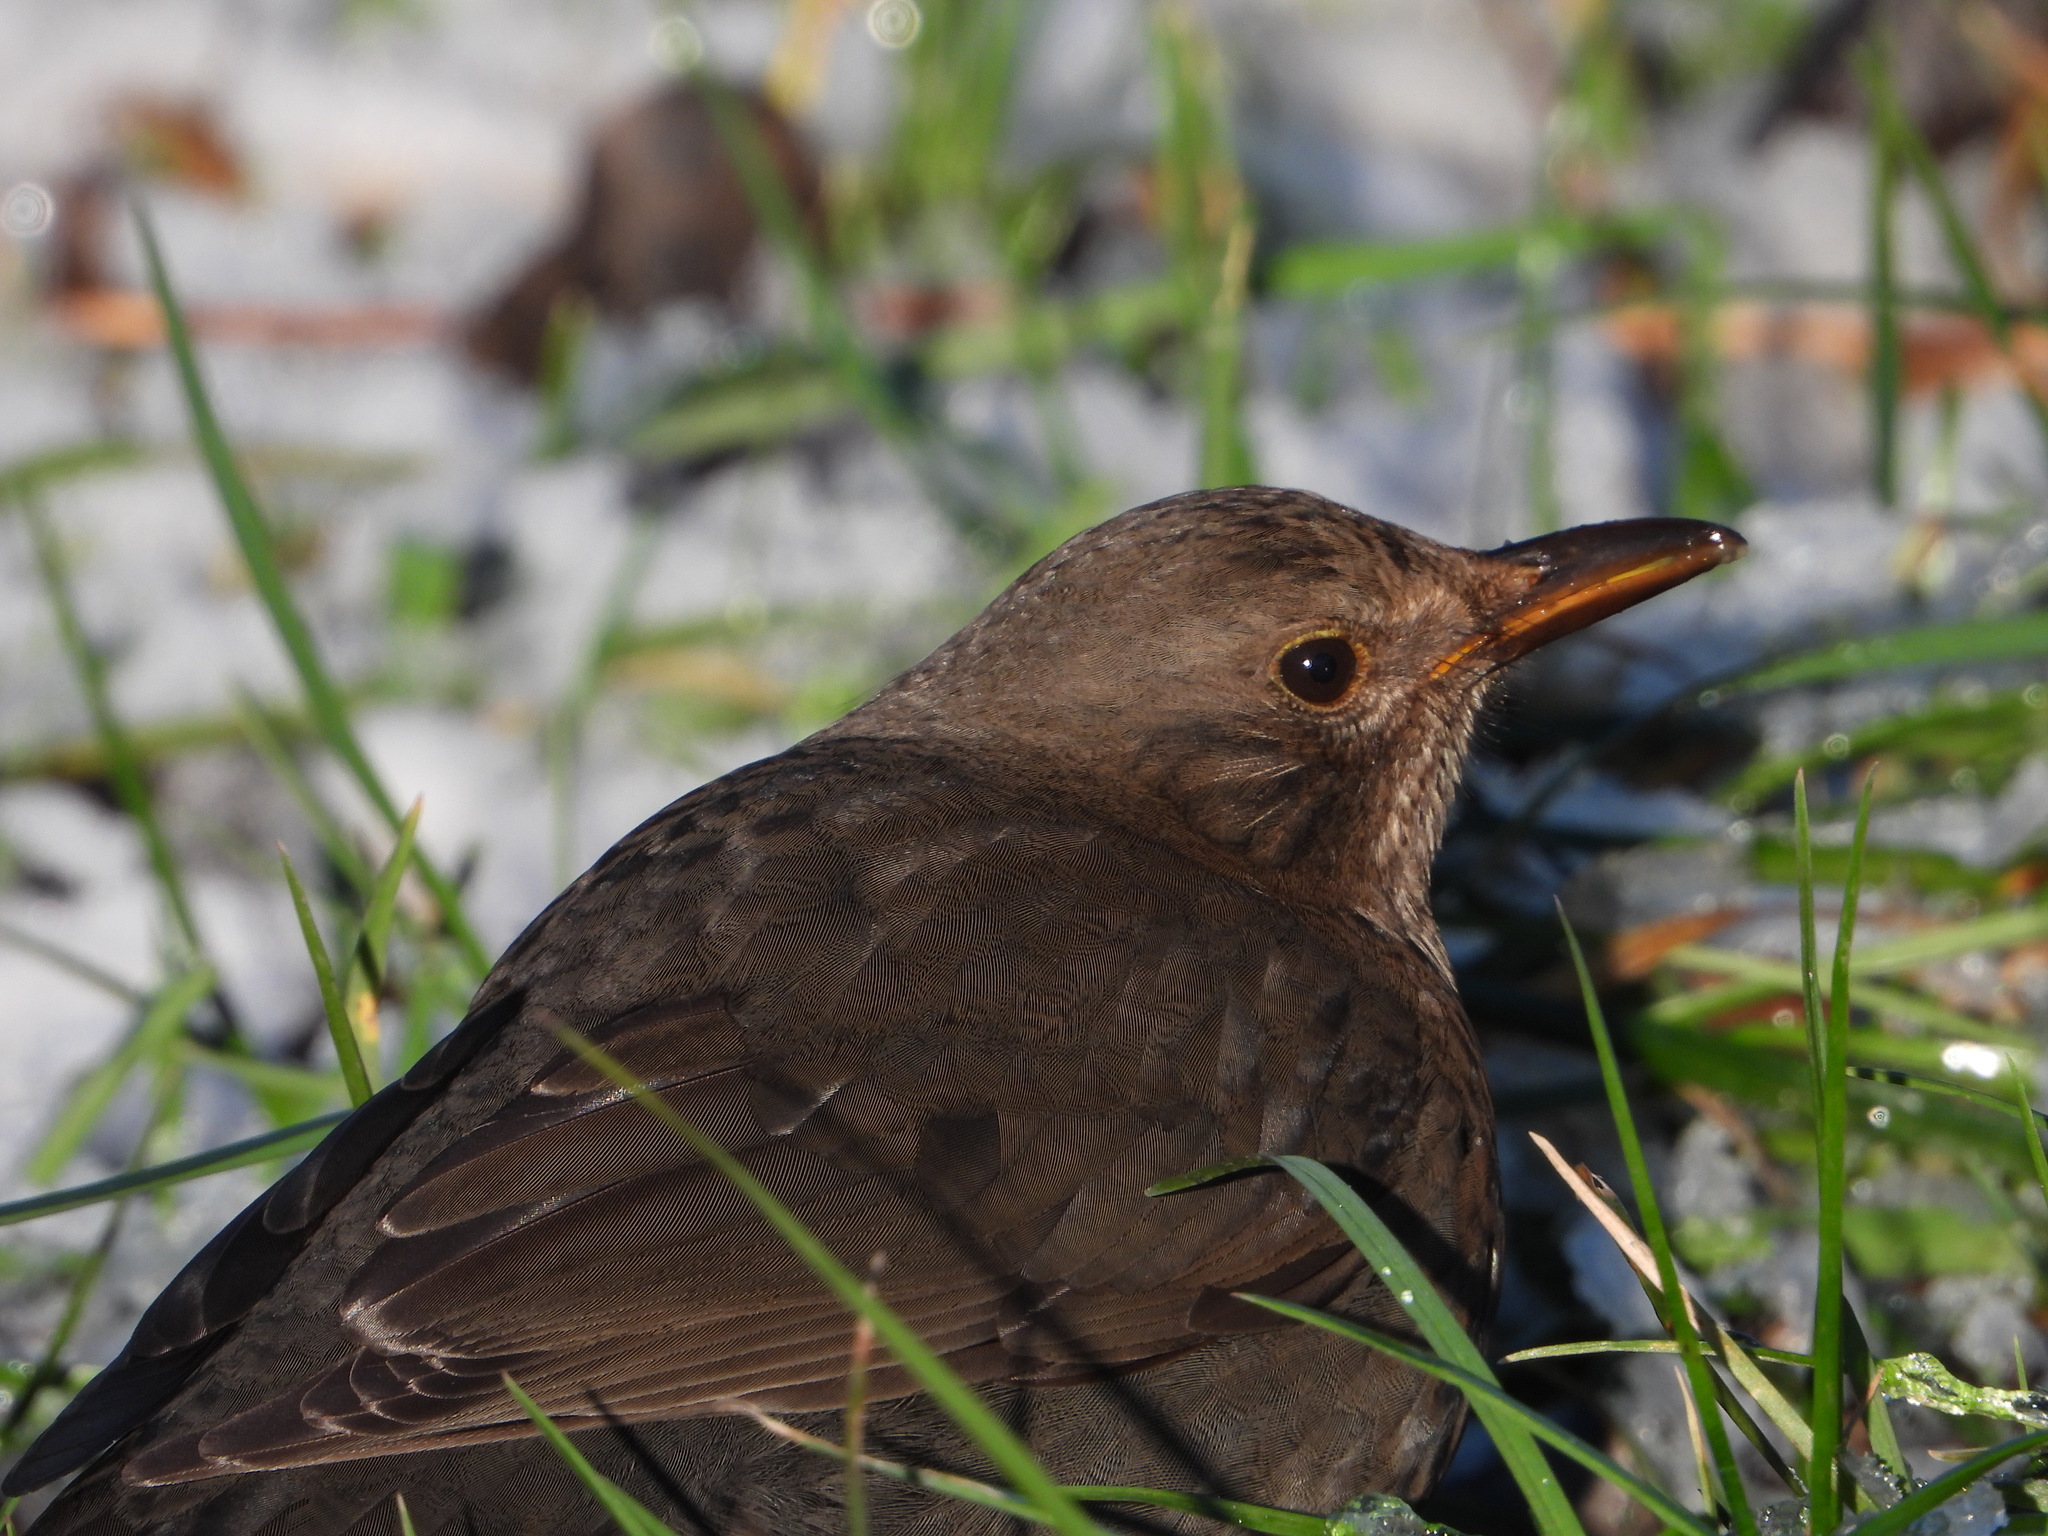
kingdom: Animalia
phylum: Chordata
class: Aves
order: Passeriformes
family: Turdidae
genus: Turdus
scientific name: Turdus merula
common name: Common blackbird
